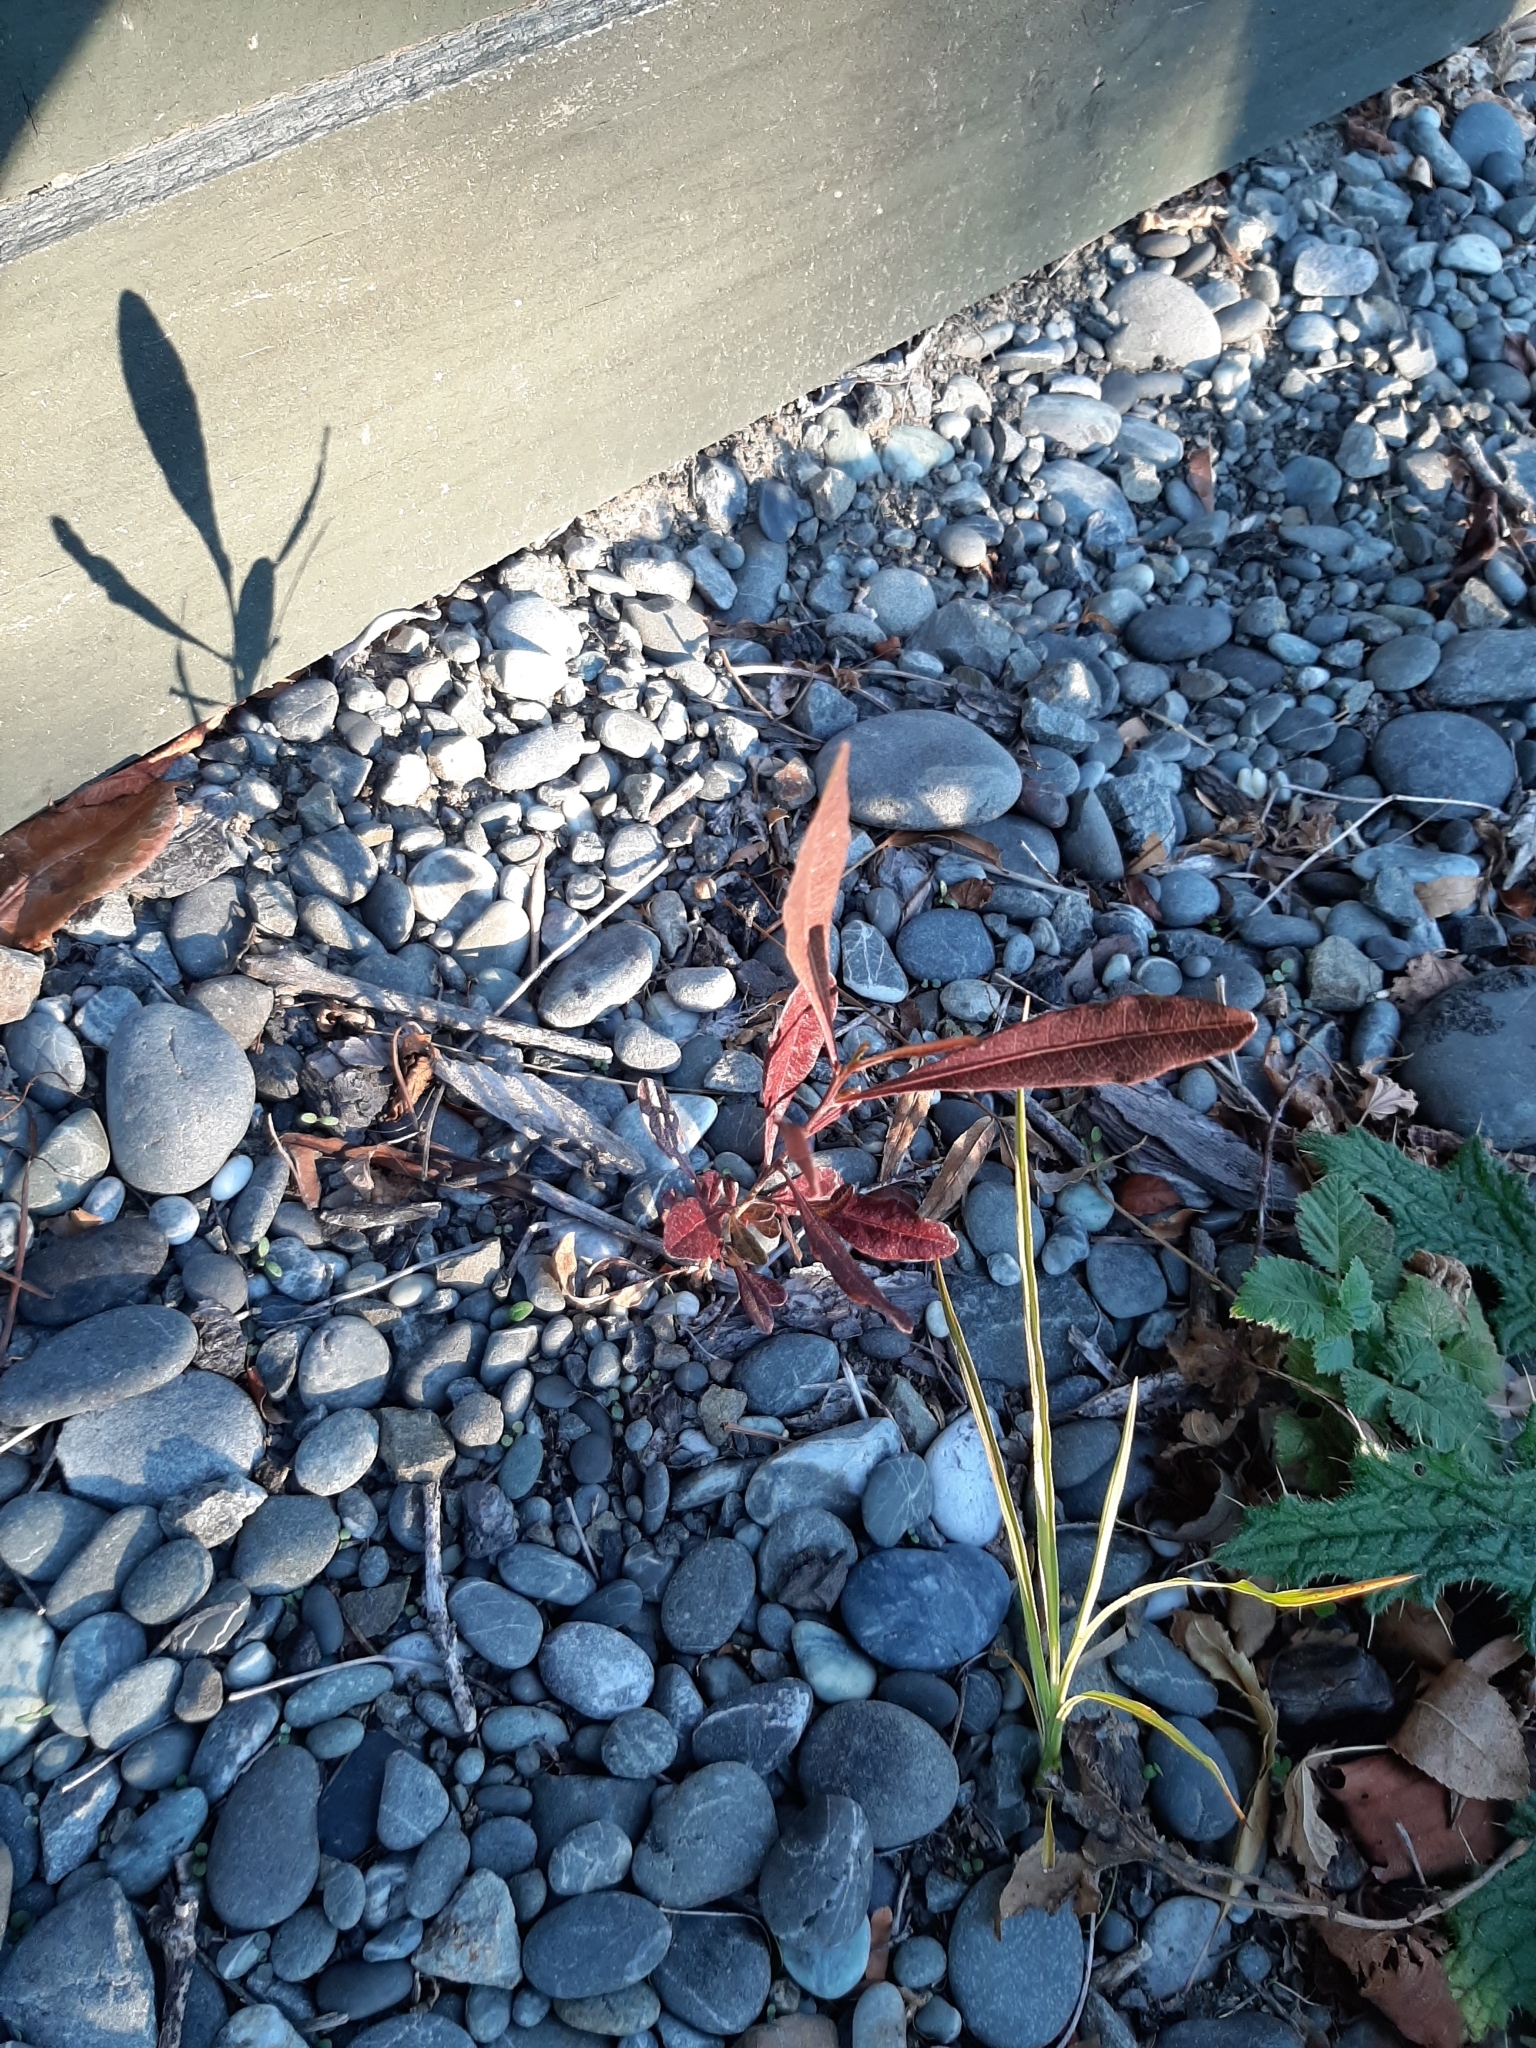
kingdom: Plantae
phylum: Tracheophyta
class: Magnoliopsida
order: Sapindales
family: Sapindaceae
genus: Dodonaea
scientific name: Dodonaea viscosa
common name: Hopbush
